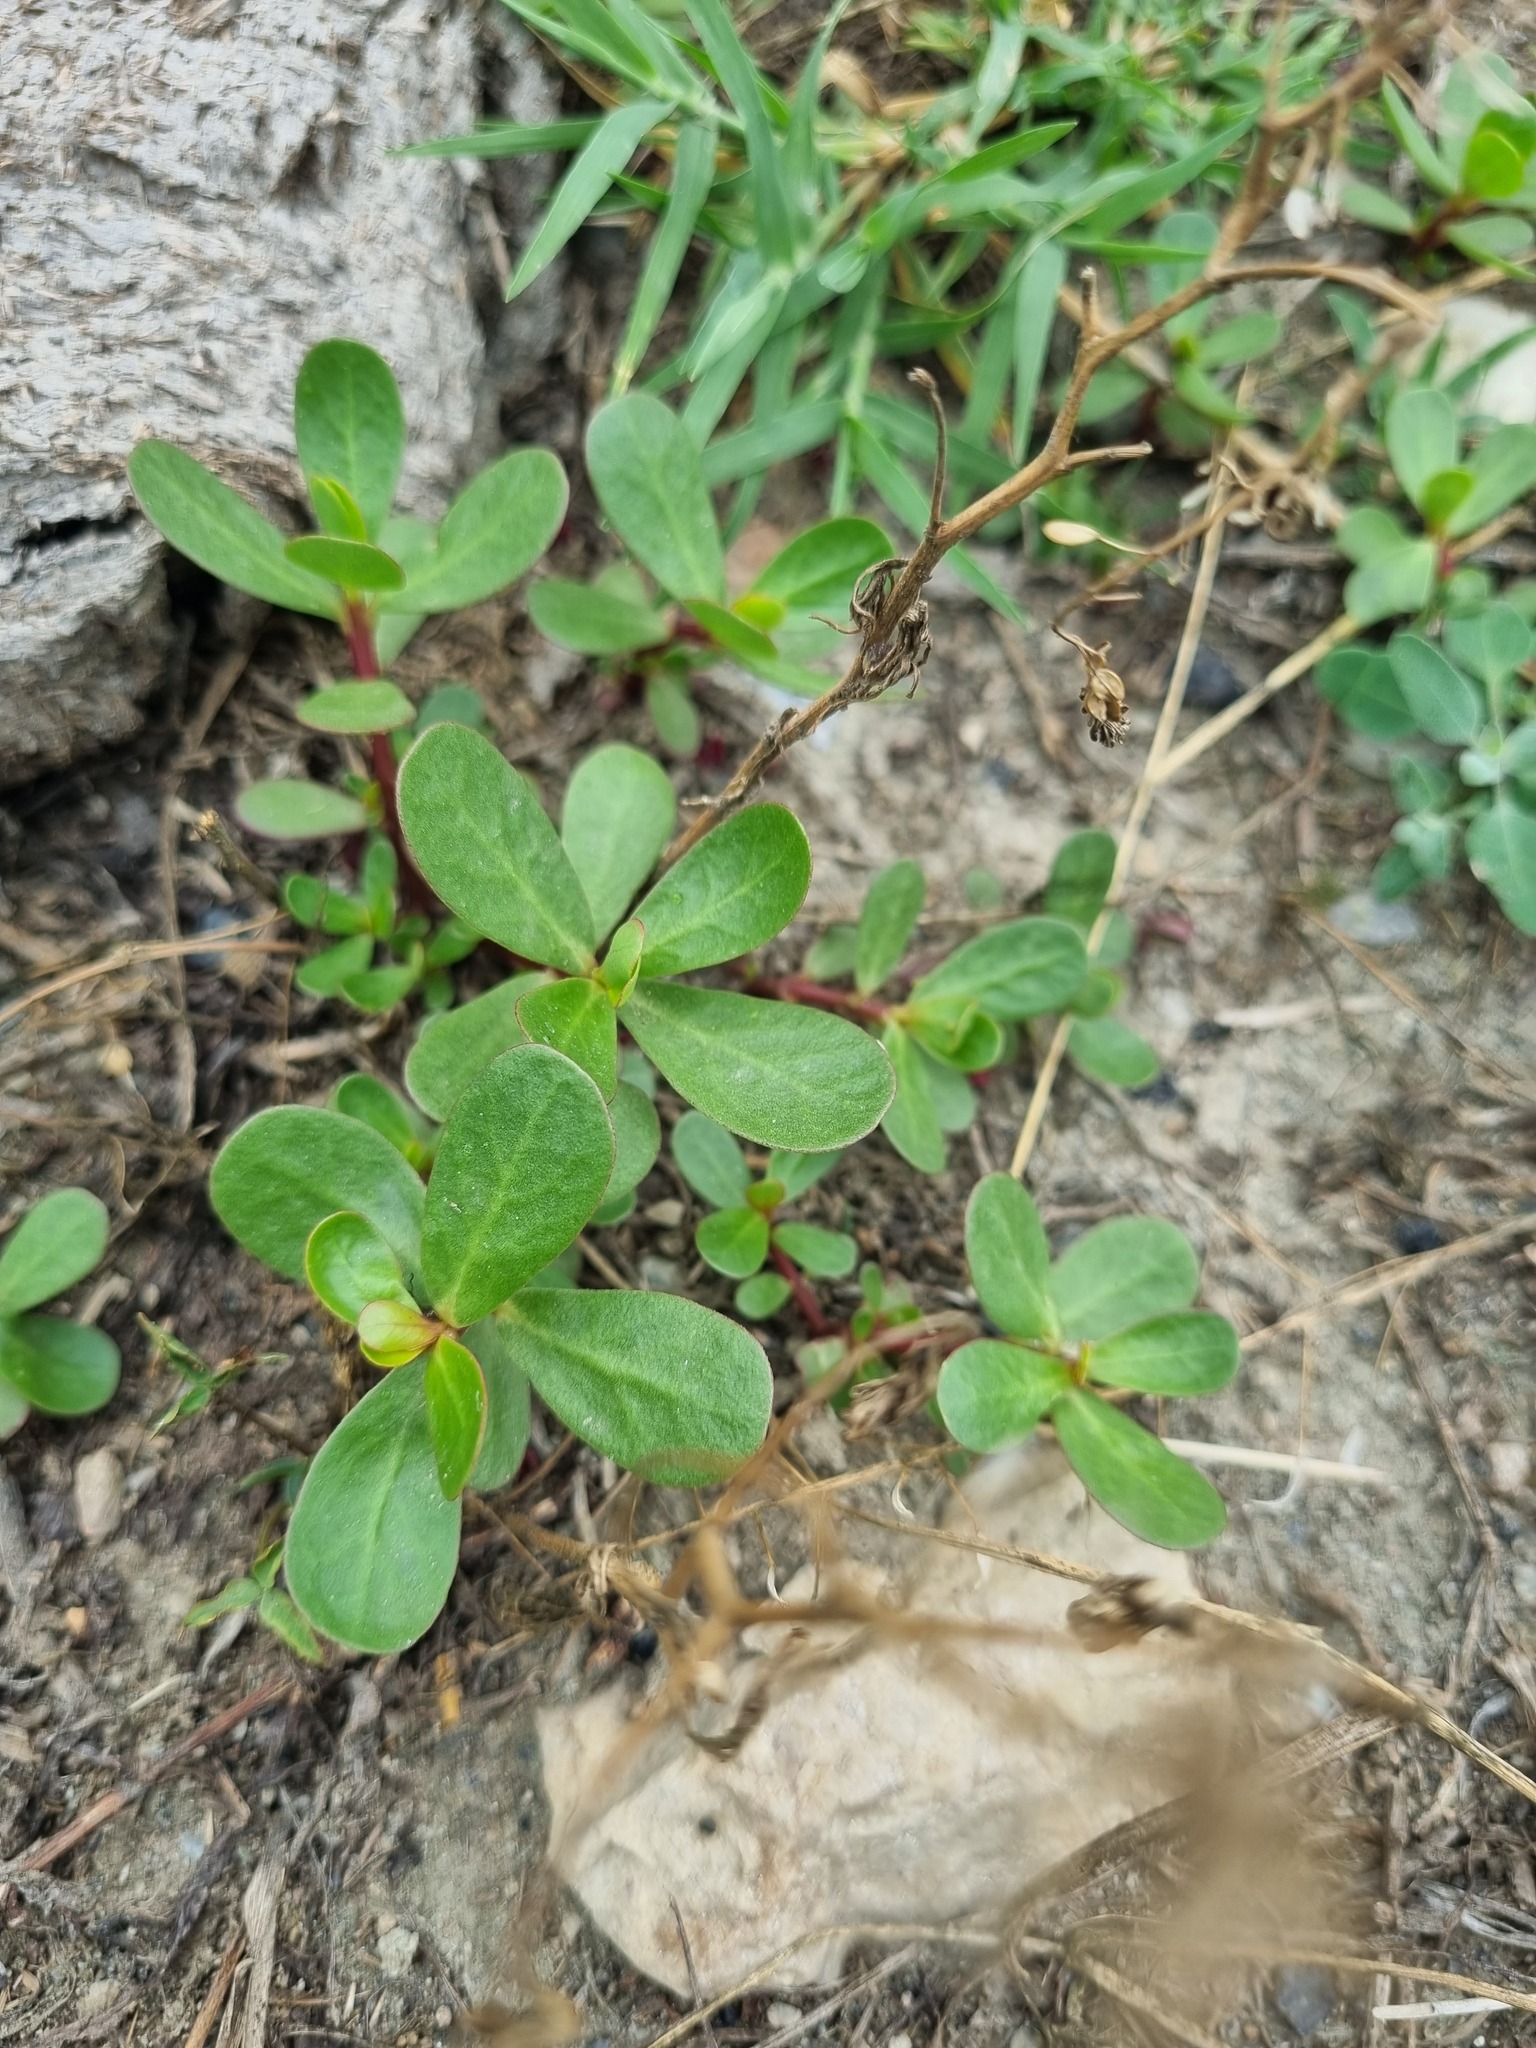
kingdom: Plantae
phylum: Tracheophyta
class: Magnoliopsida
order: Caryophyllales
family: Portulacaceae
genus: Portulaca
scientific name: Portulaca oleracea
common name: Common purslane
